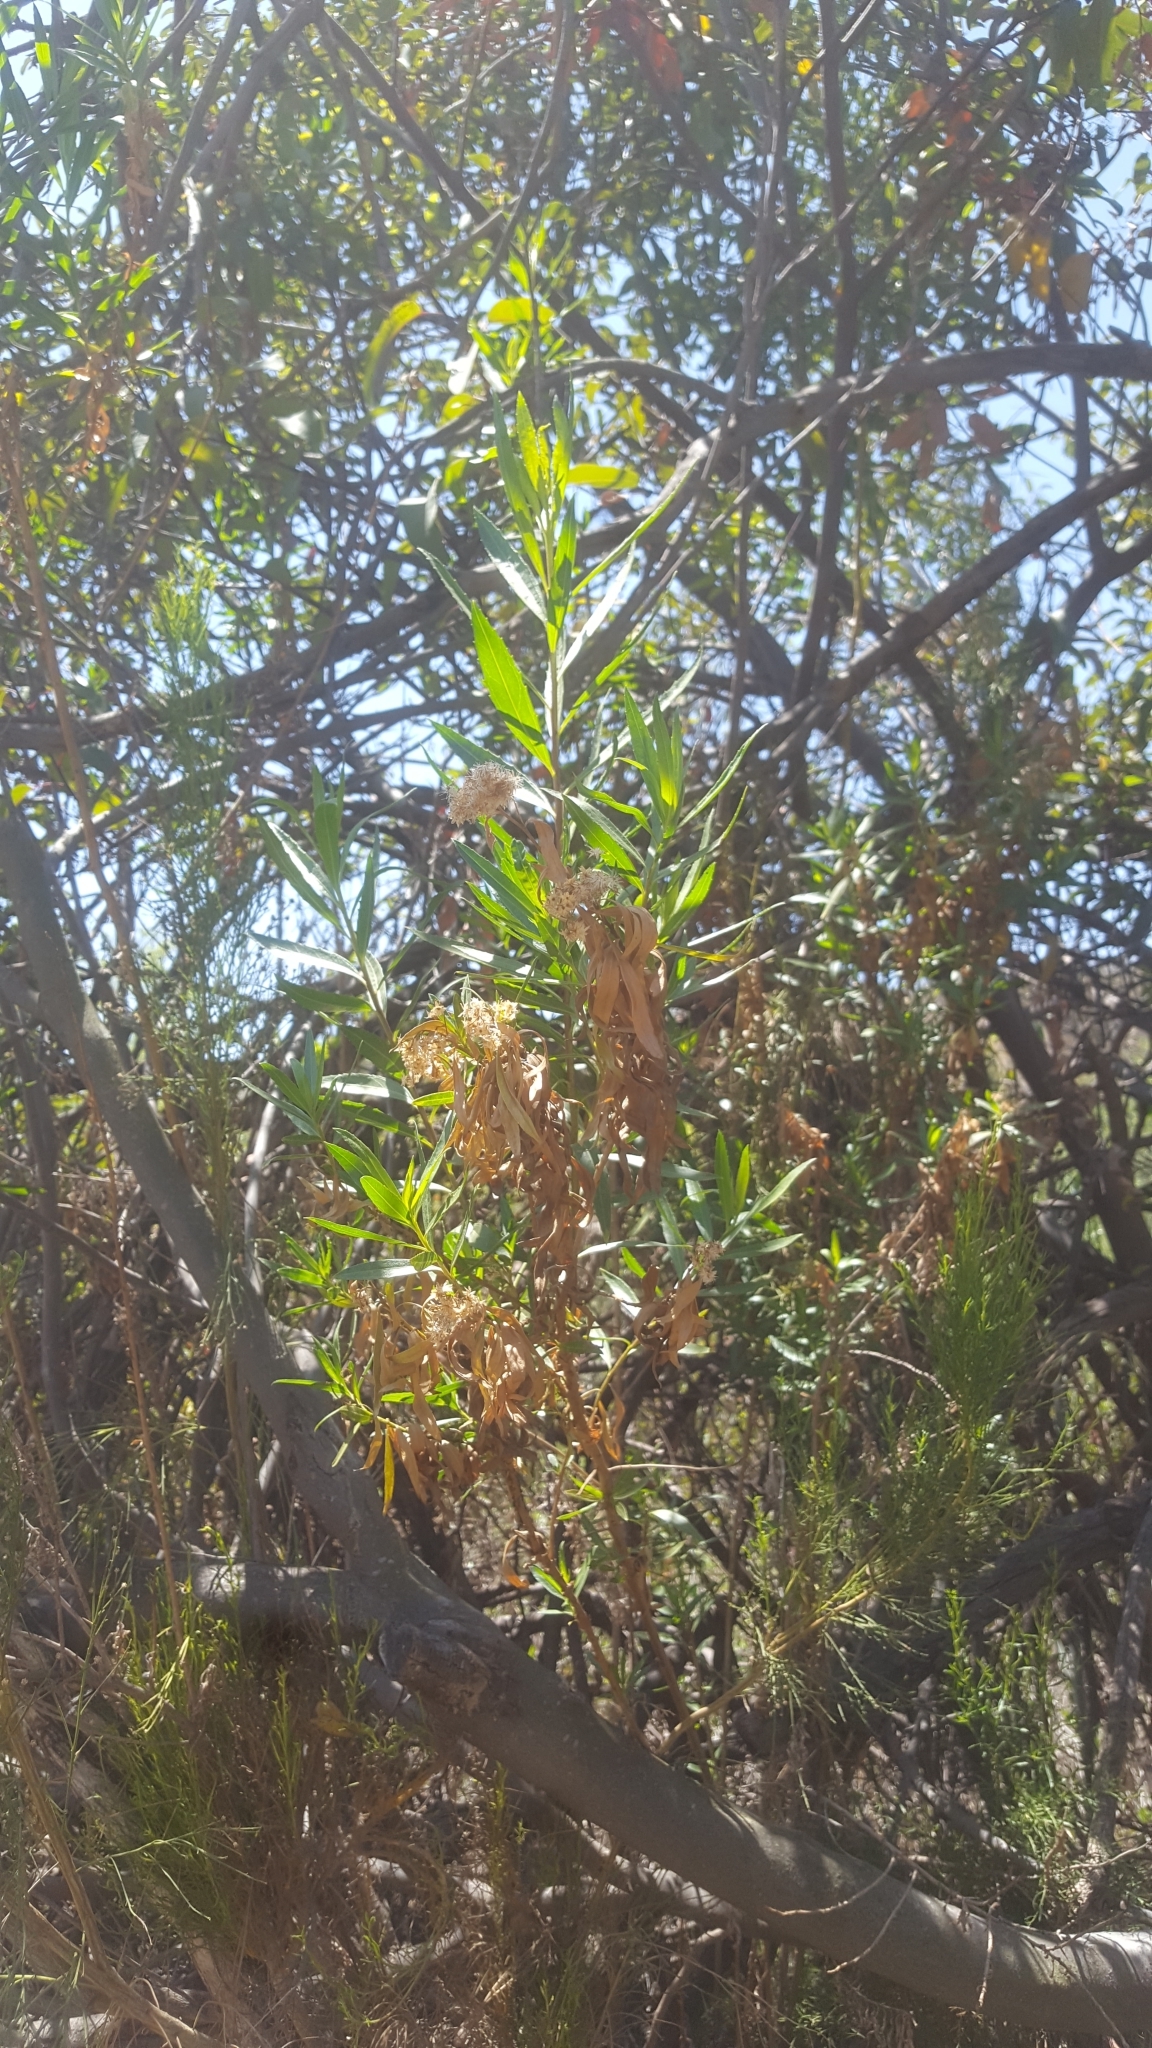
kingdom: Plantae
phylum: Tracheophyta
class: Magnoliopsida
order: Asterales
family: Asteraceae
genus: Baccharis
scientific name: Baccharis salicifolia
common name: Sticky baccharis
